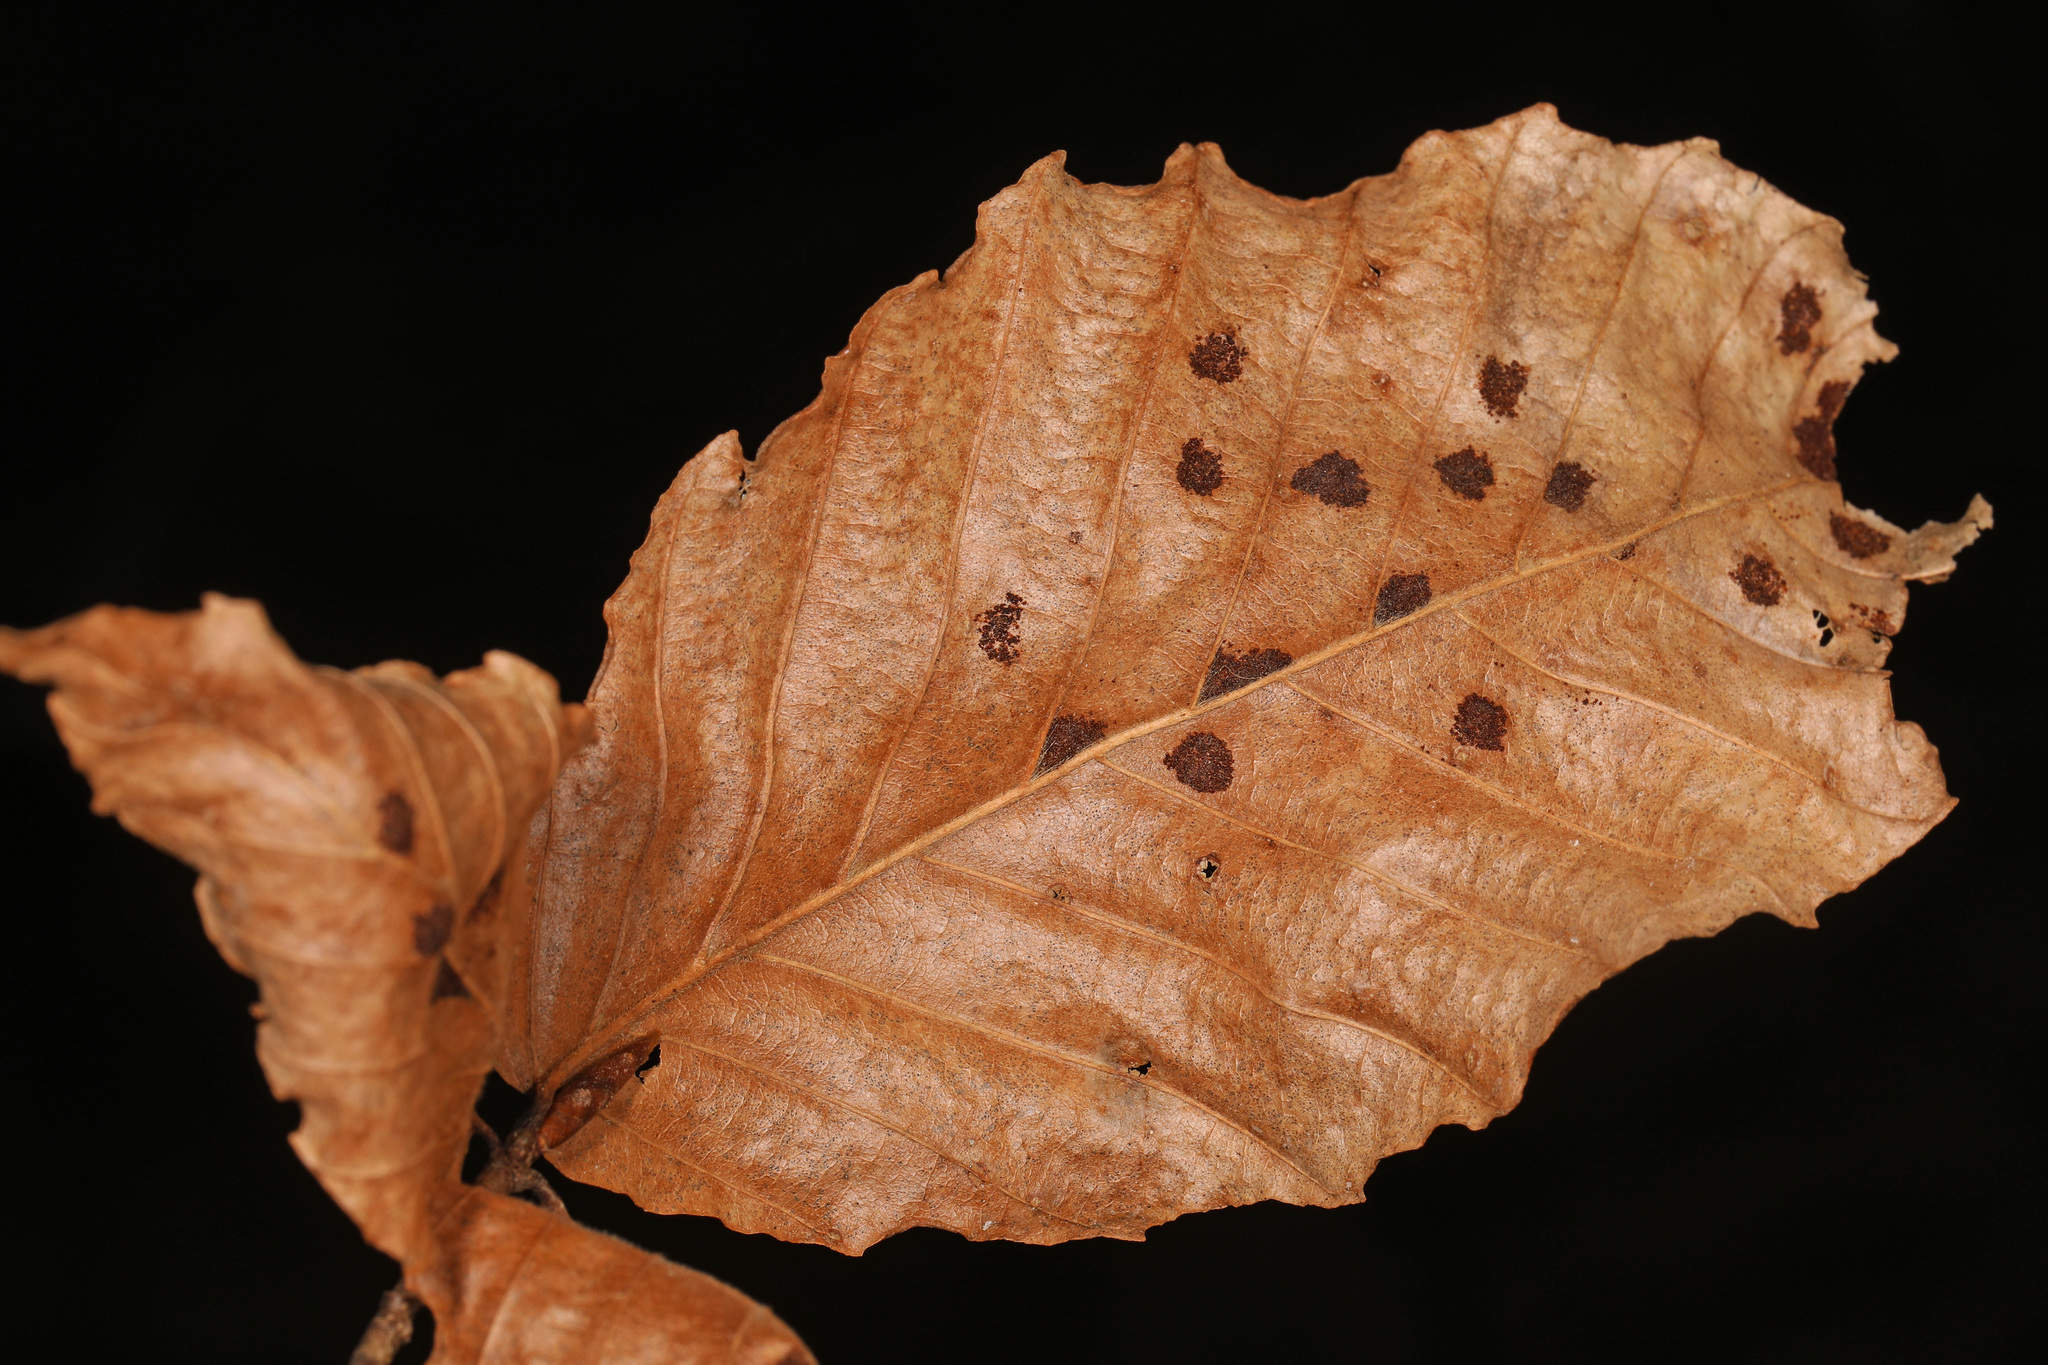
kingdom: Plantae
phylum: Tracheophyta
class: Magnoliopsida
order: Fagales
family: Fagaceae
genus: Fagus
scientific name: Fagus grandifolia
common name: American beech
